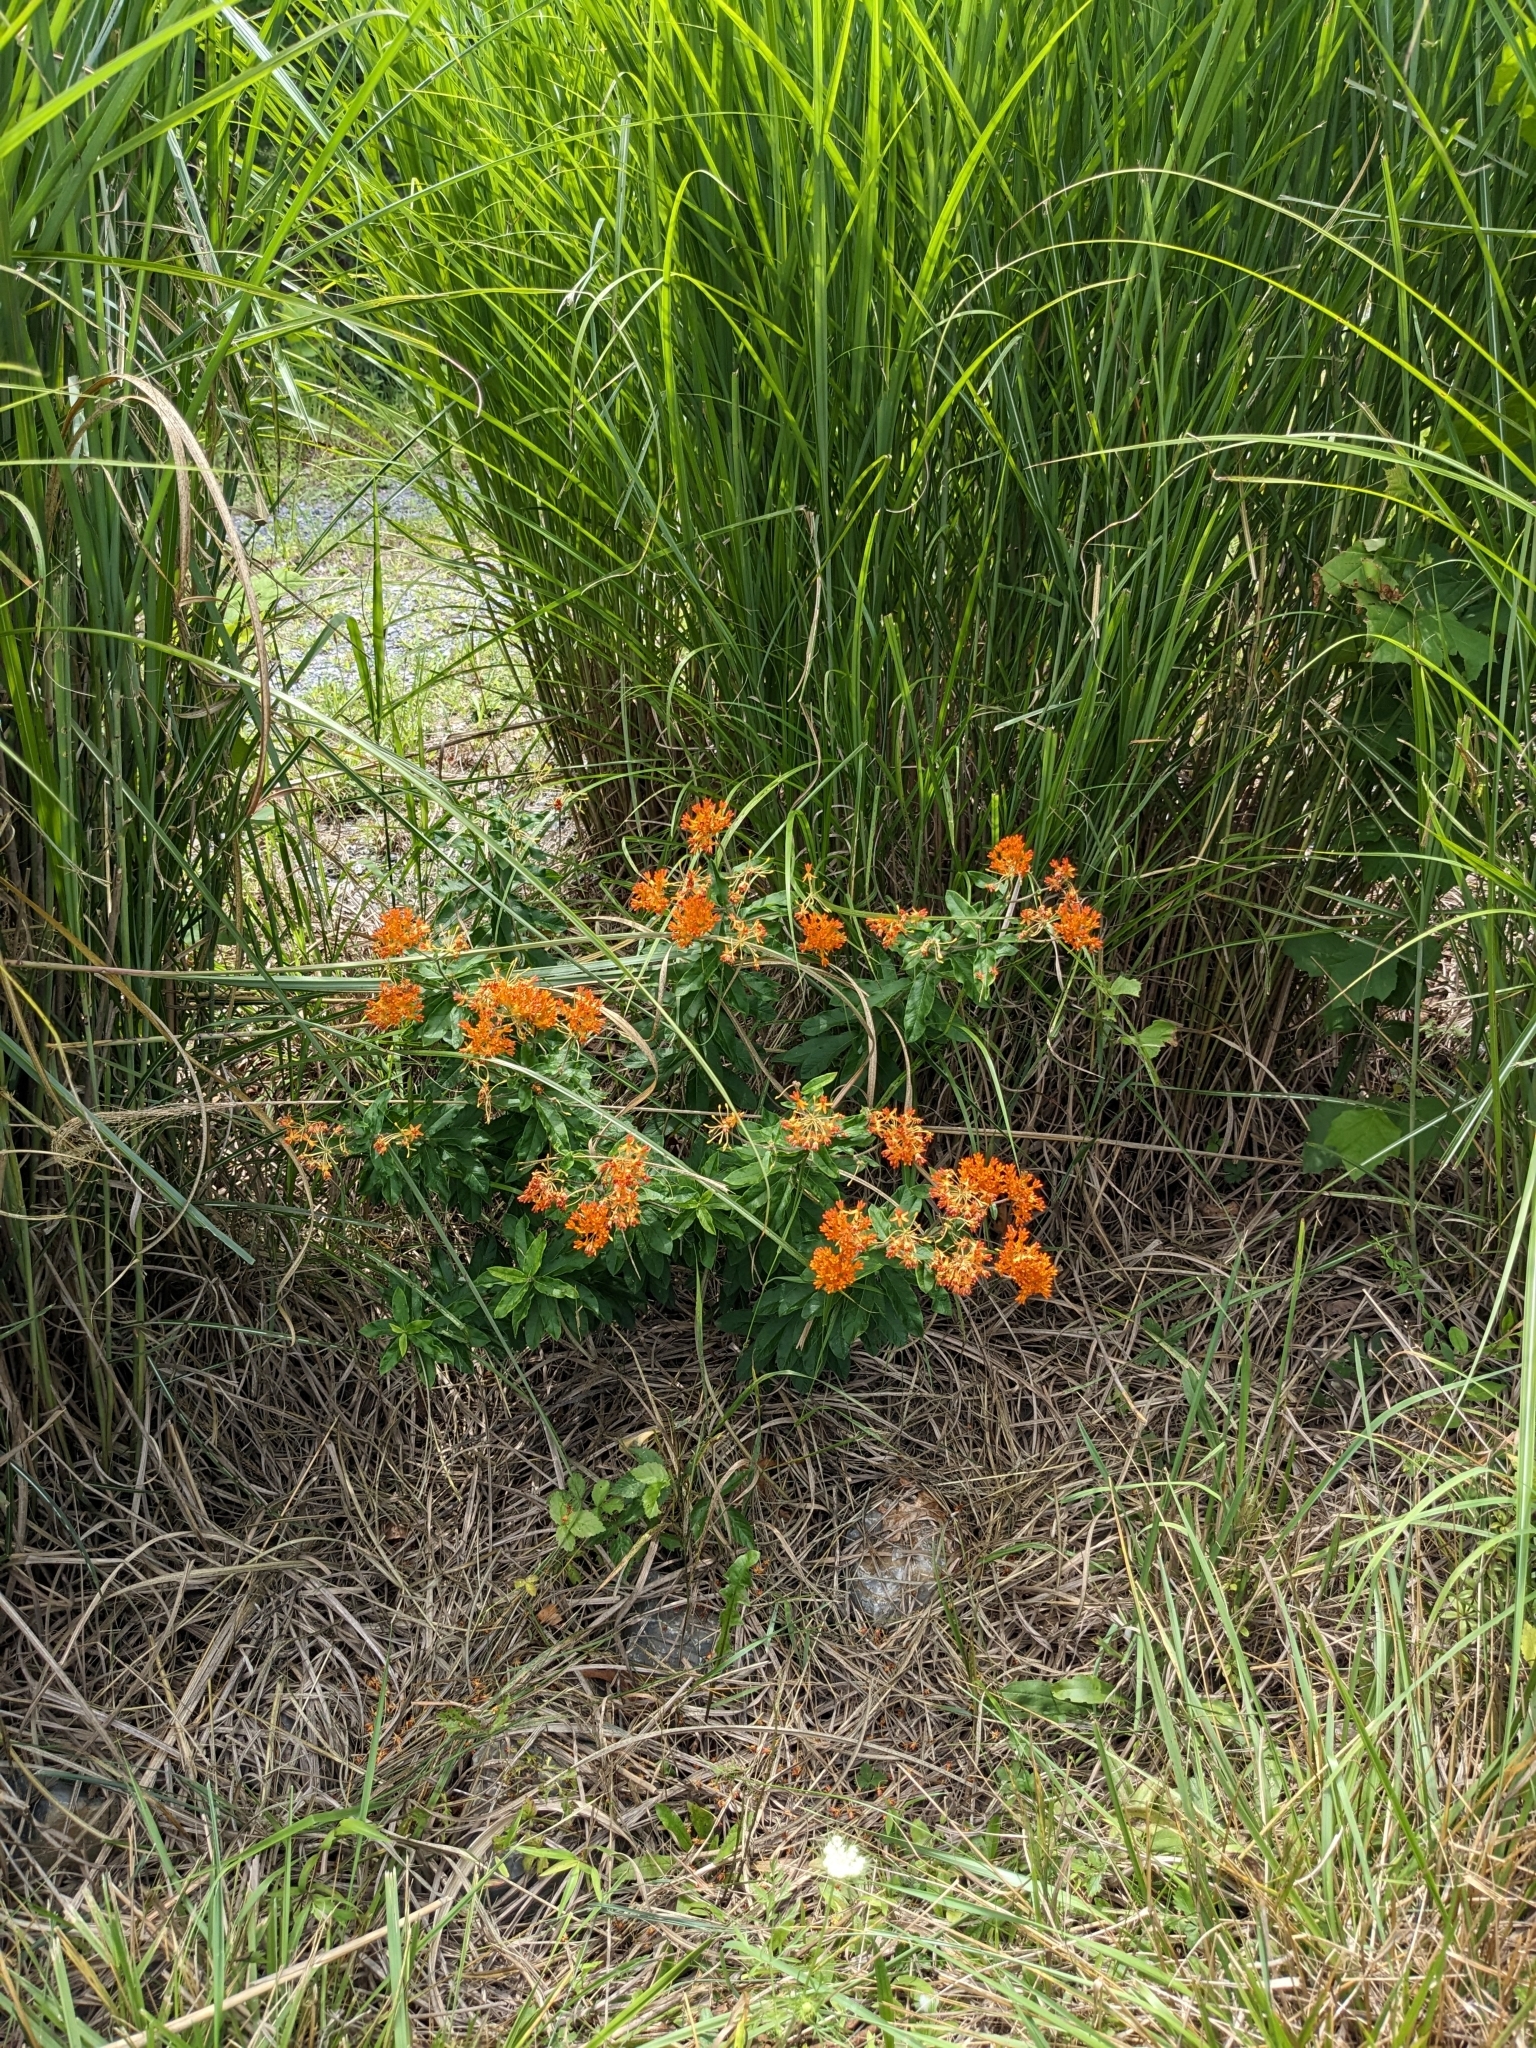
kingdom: Plantae
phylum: Tracheophyta
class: Magnoliopsida
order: Gentianales
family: Apocynaceae
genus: Asclepias
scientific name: Asclepias tuberosa
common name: Butterfly milkweed
